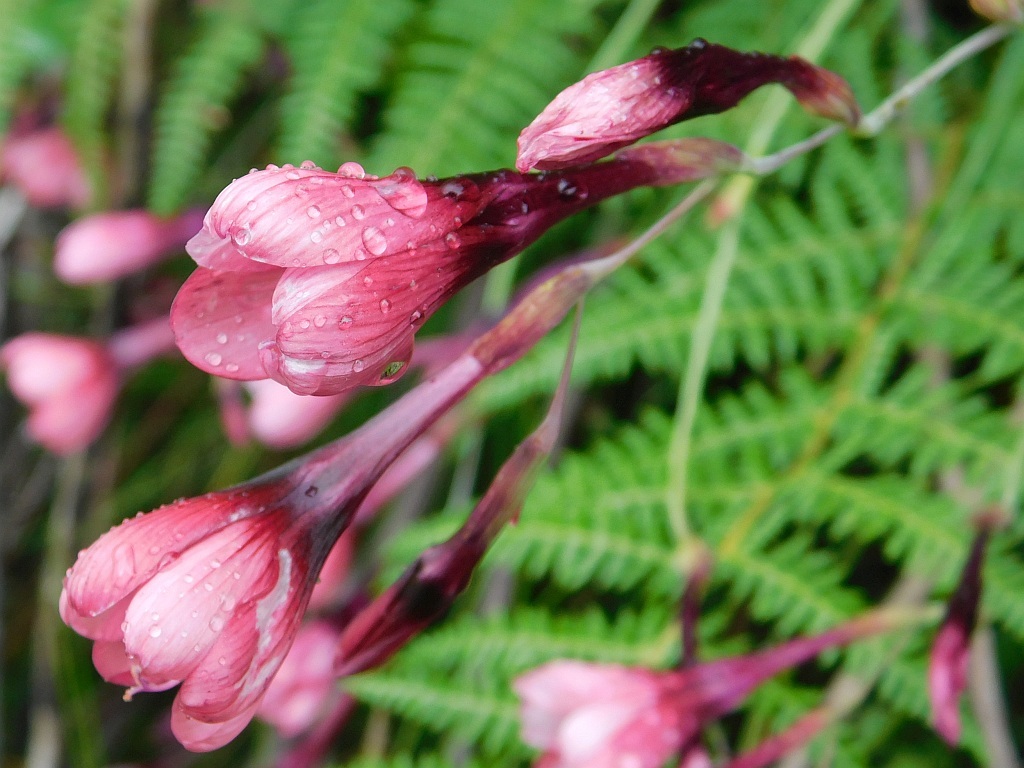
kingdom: Plantae
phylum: Tracheophyta
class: Liliopsida
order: Asparagales
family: Iridaceae
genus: Geissorhiza
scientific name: Geissorhiza callista
